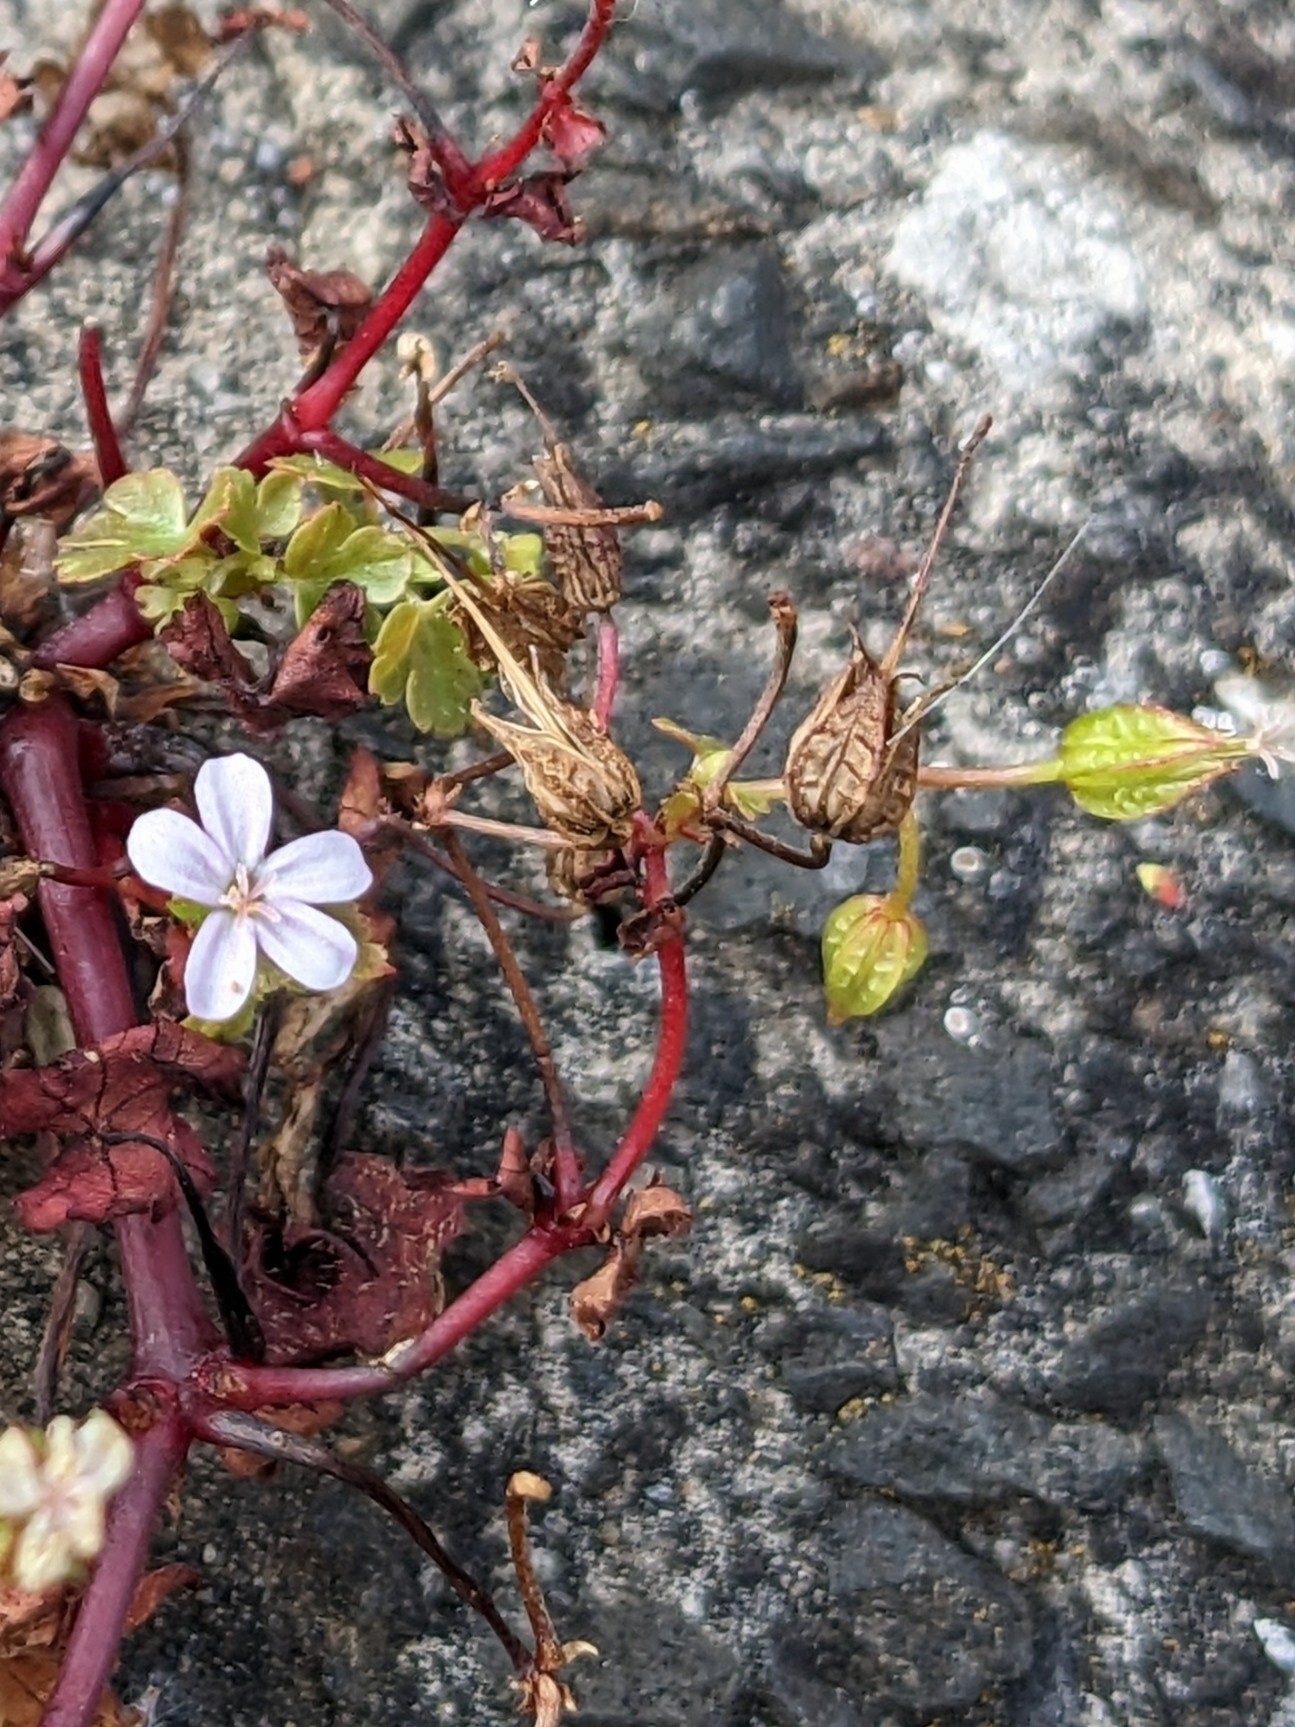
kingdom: Plantae
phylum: Tracheophyta
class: Magnoliopsida
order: Geraniales
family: Geraniaceae
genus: Geranium
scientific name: Geranium lucidum
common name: Shining crane's-bill
